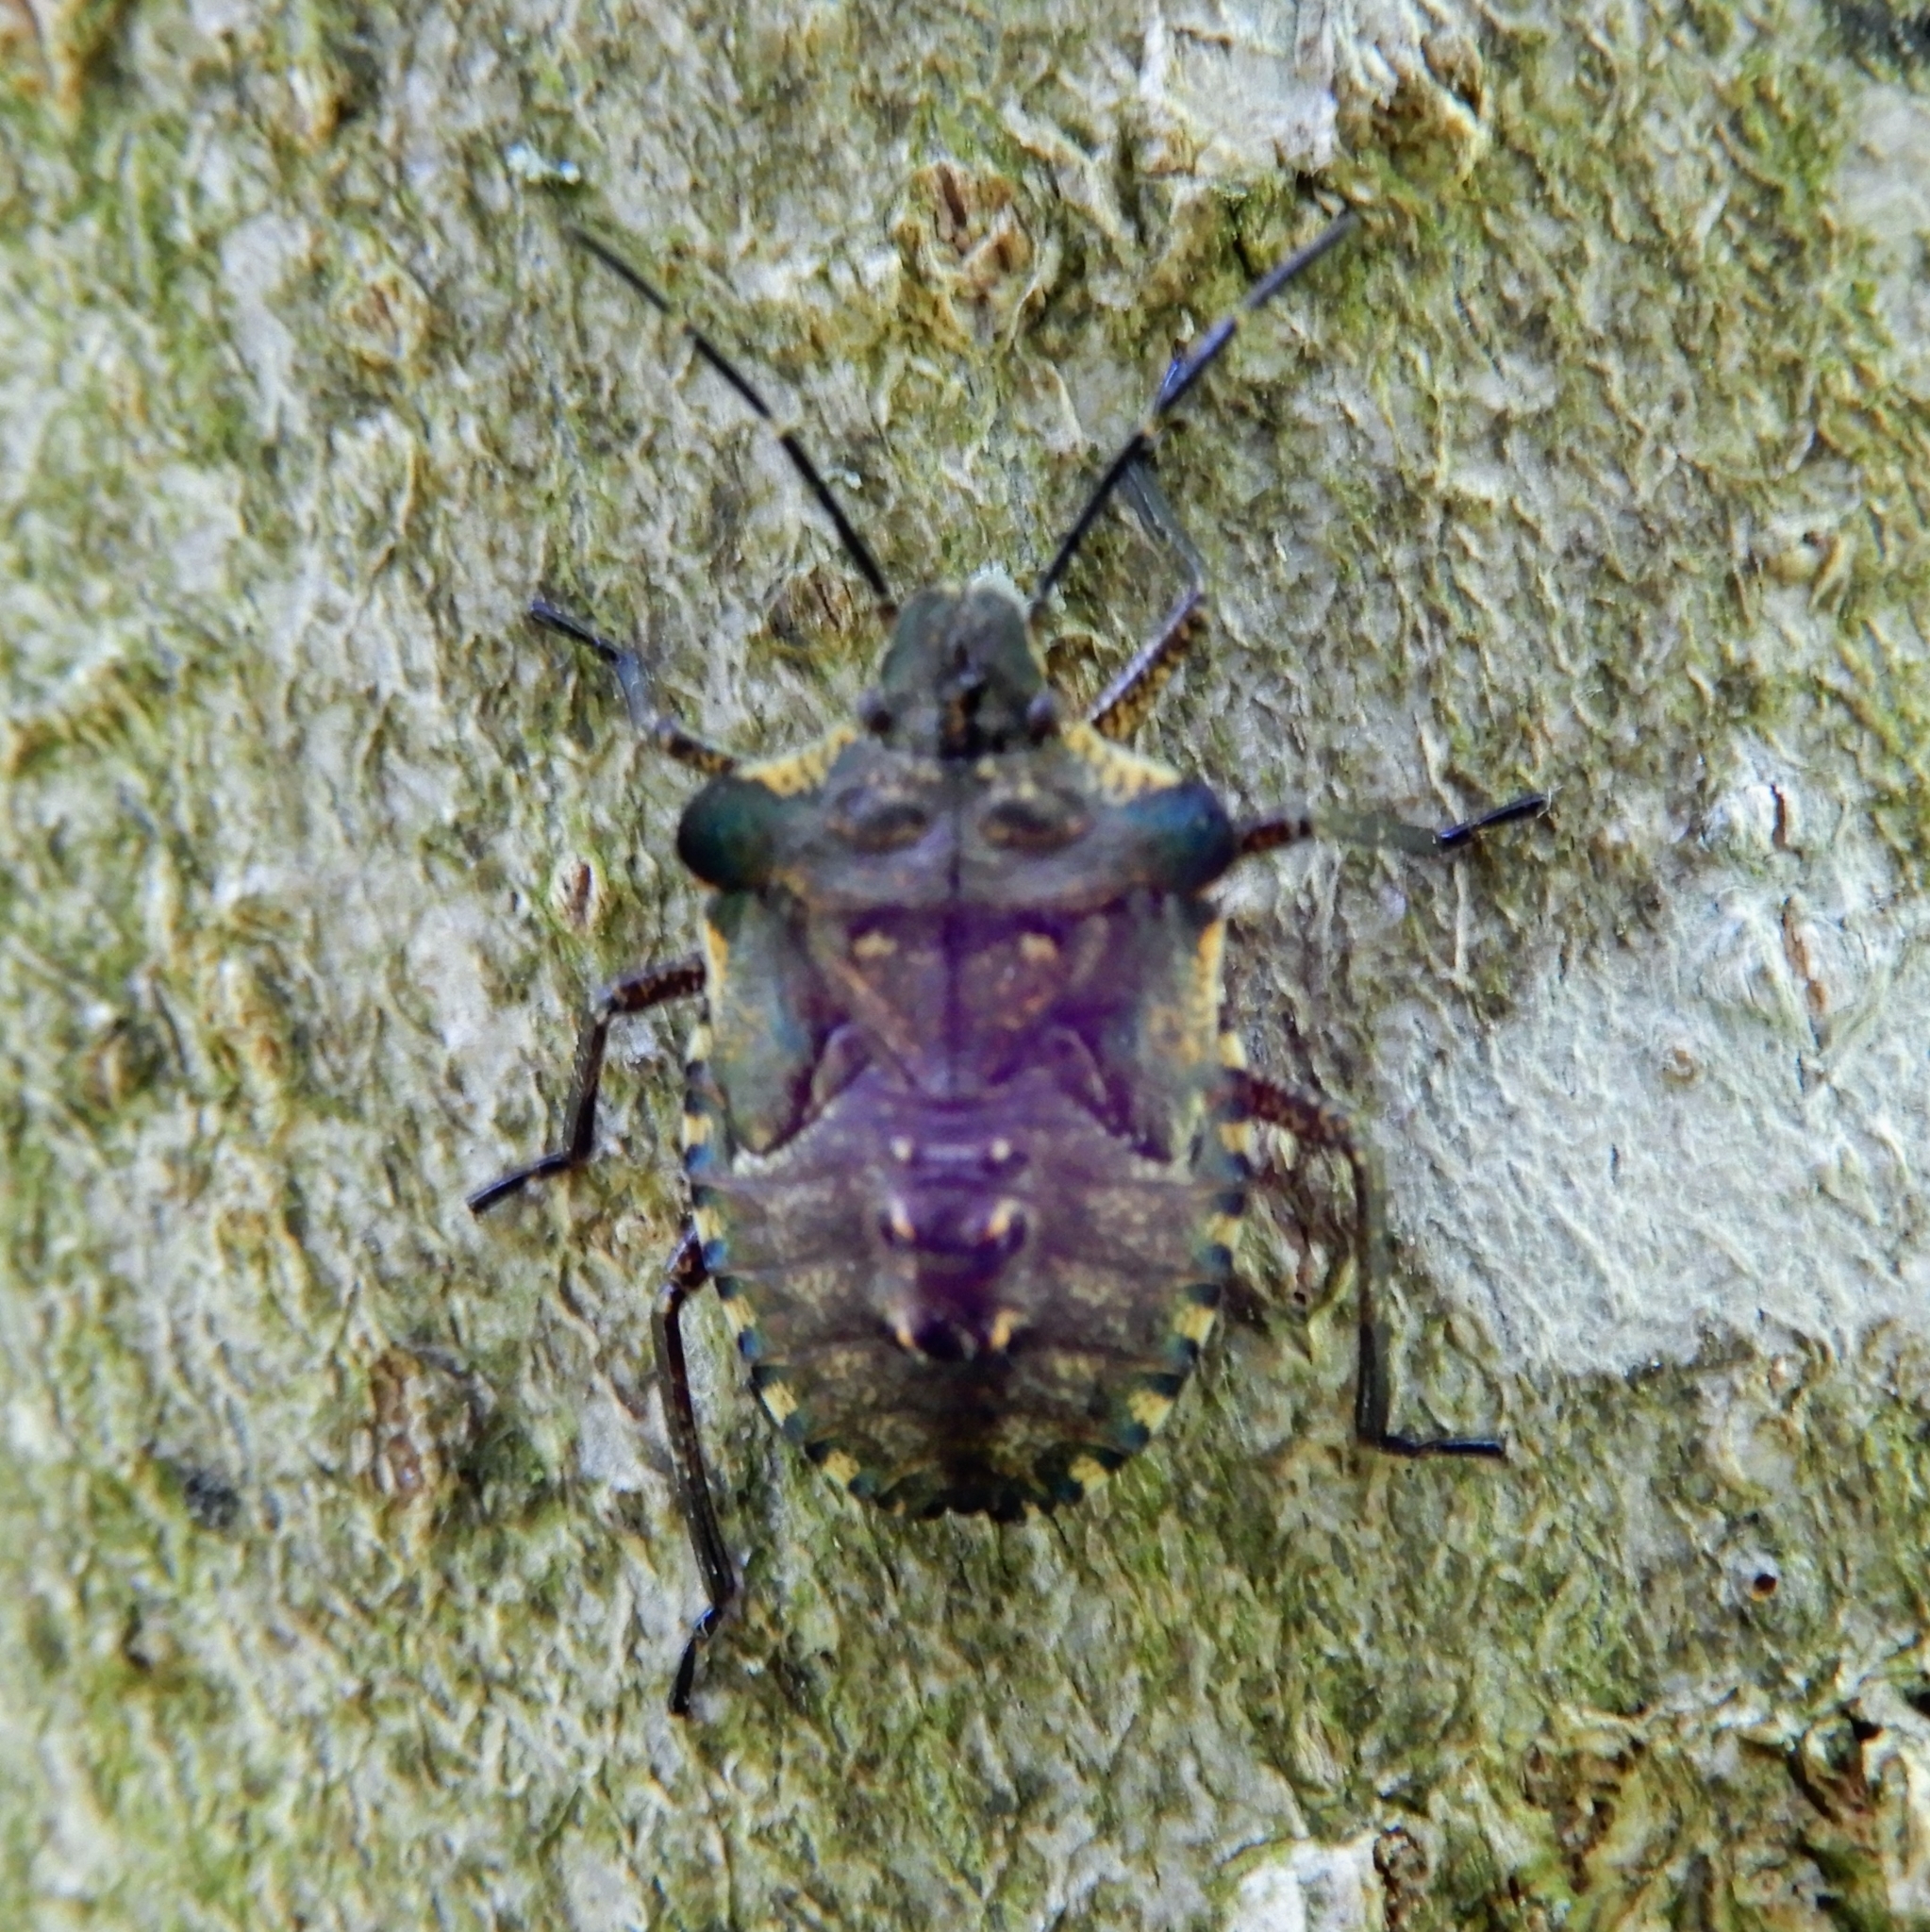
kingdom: Animalia
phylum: Arthropoda
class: Insecta
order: Hemiptera
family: Pentatomidae
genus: Pentatoma
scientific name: Pentatoma rufipes
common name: Forest bug
